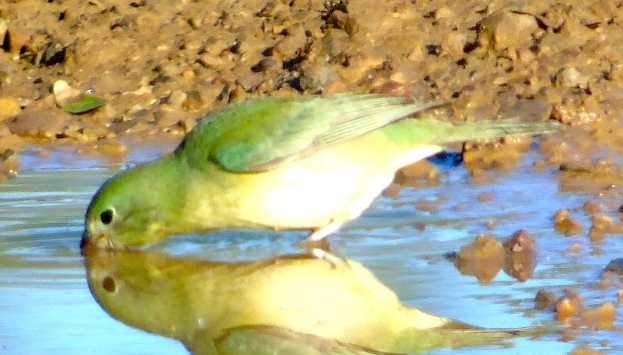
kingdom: Animalia
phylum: Chordata
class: Aves
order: Passeriformes
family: Cardinalidae
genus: Passerina
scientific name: Passerina ciris
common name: Painted bunting
